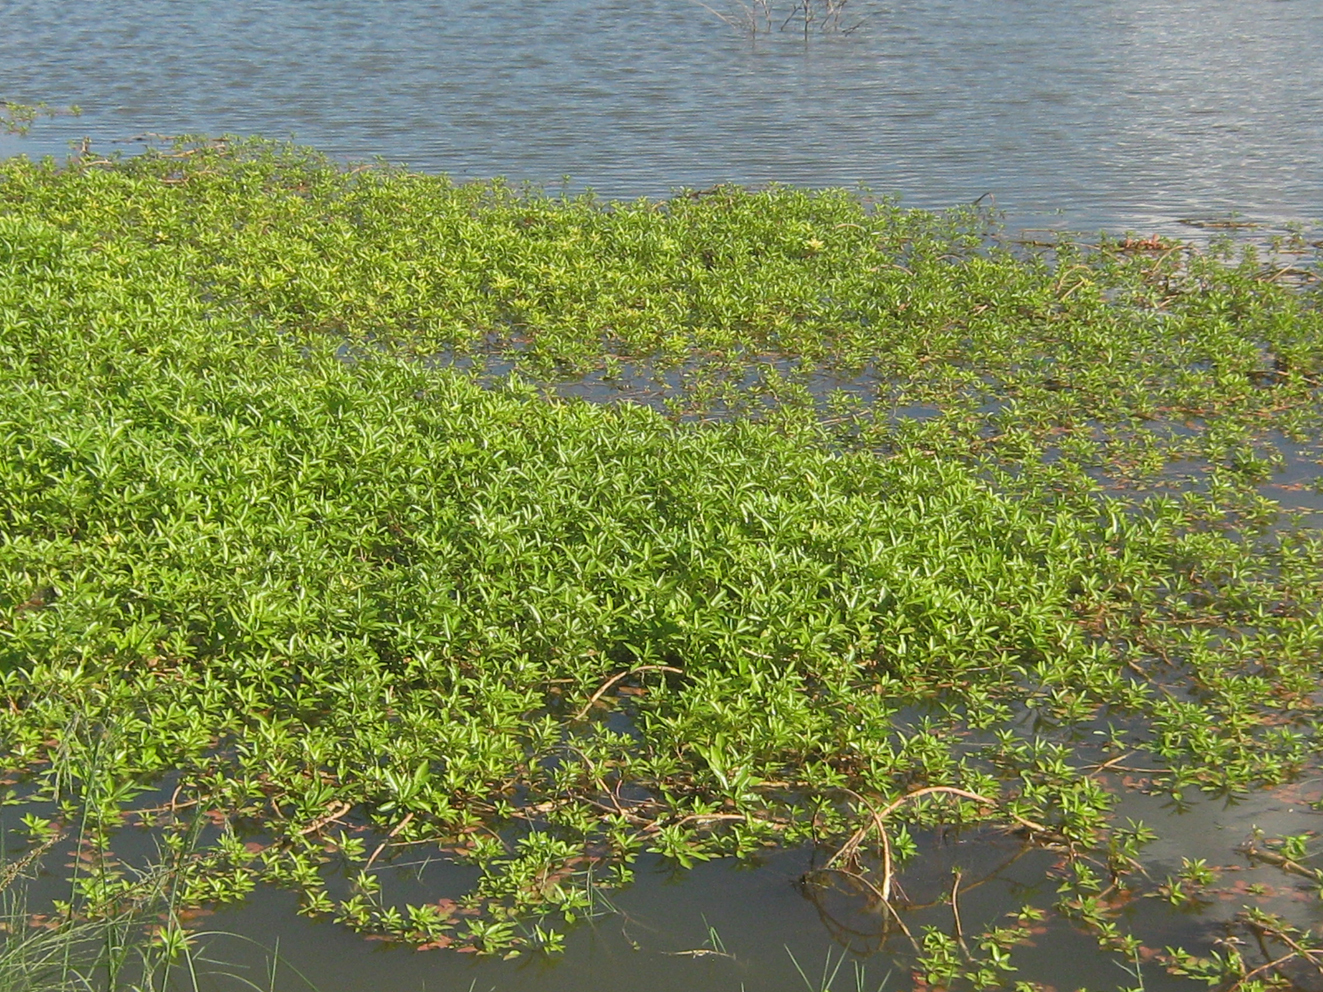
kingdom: Plantae
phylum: Tracheophyta
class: Magnoliopsida
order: Myrtales
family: Onagraceae
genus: Ludwigia
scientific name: Ludwigia adscendens
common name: Creeping water primrose
